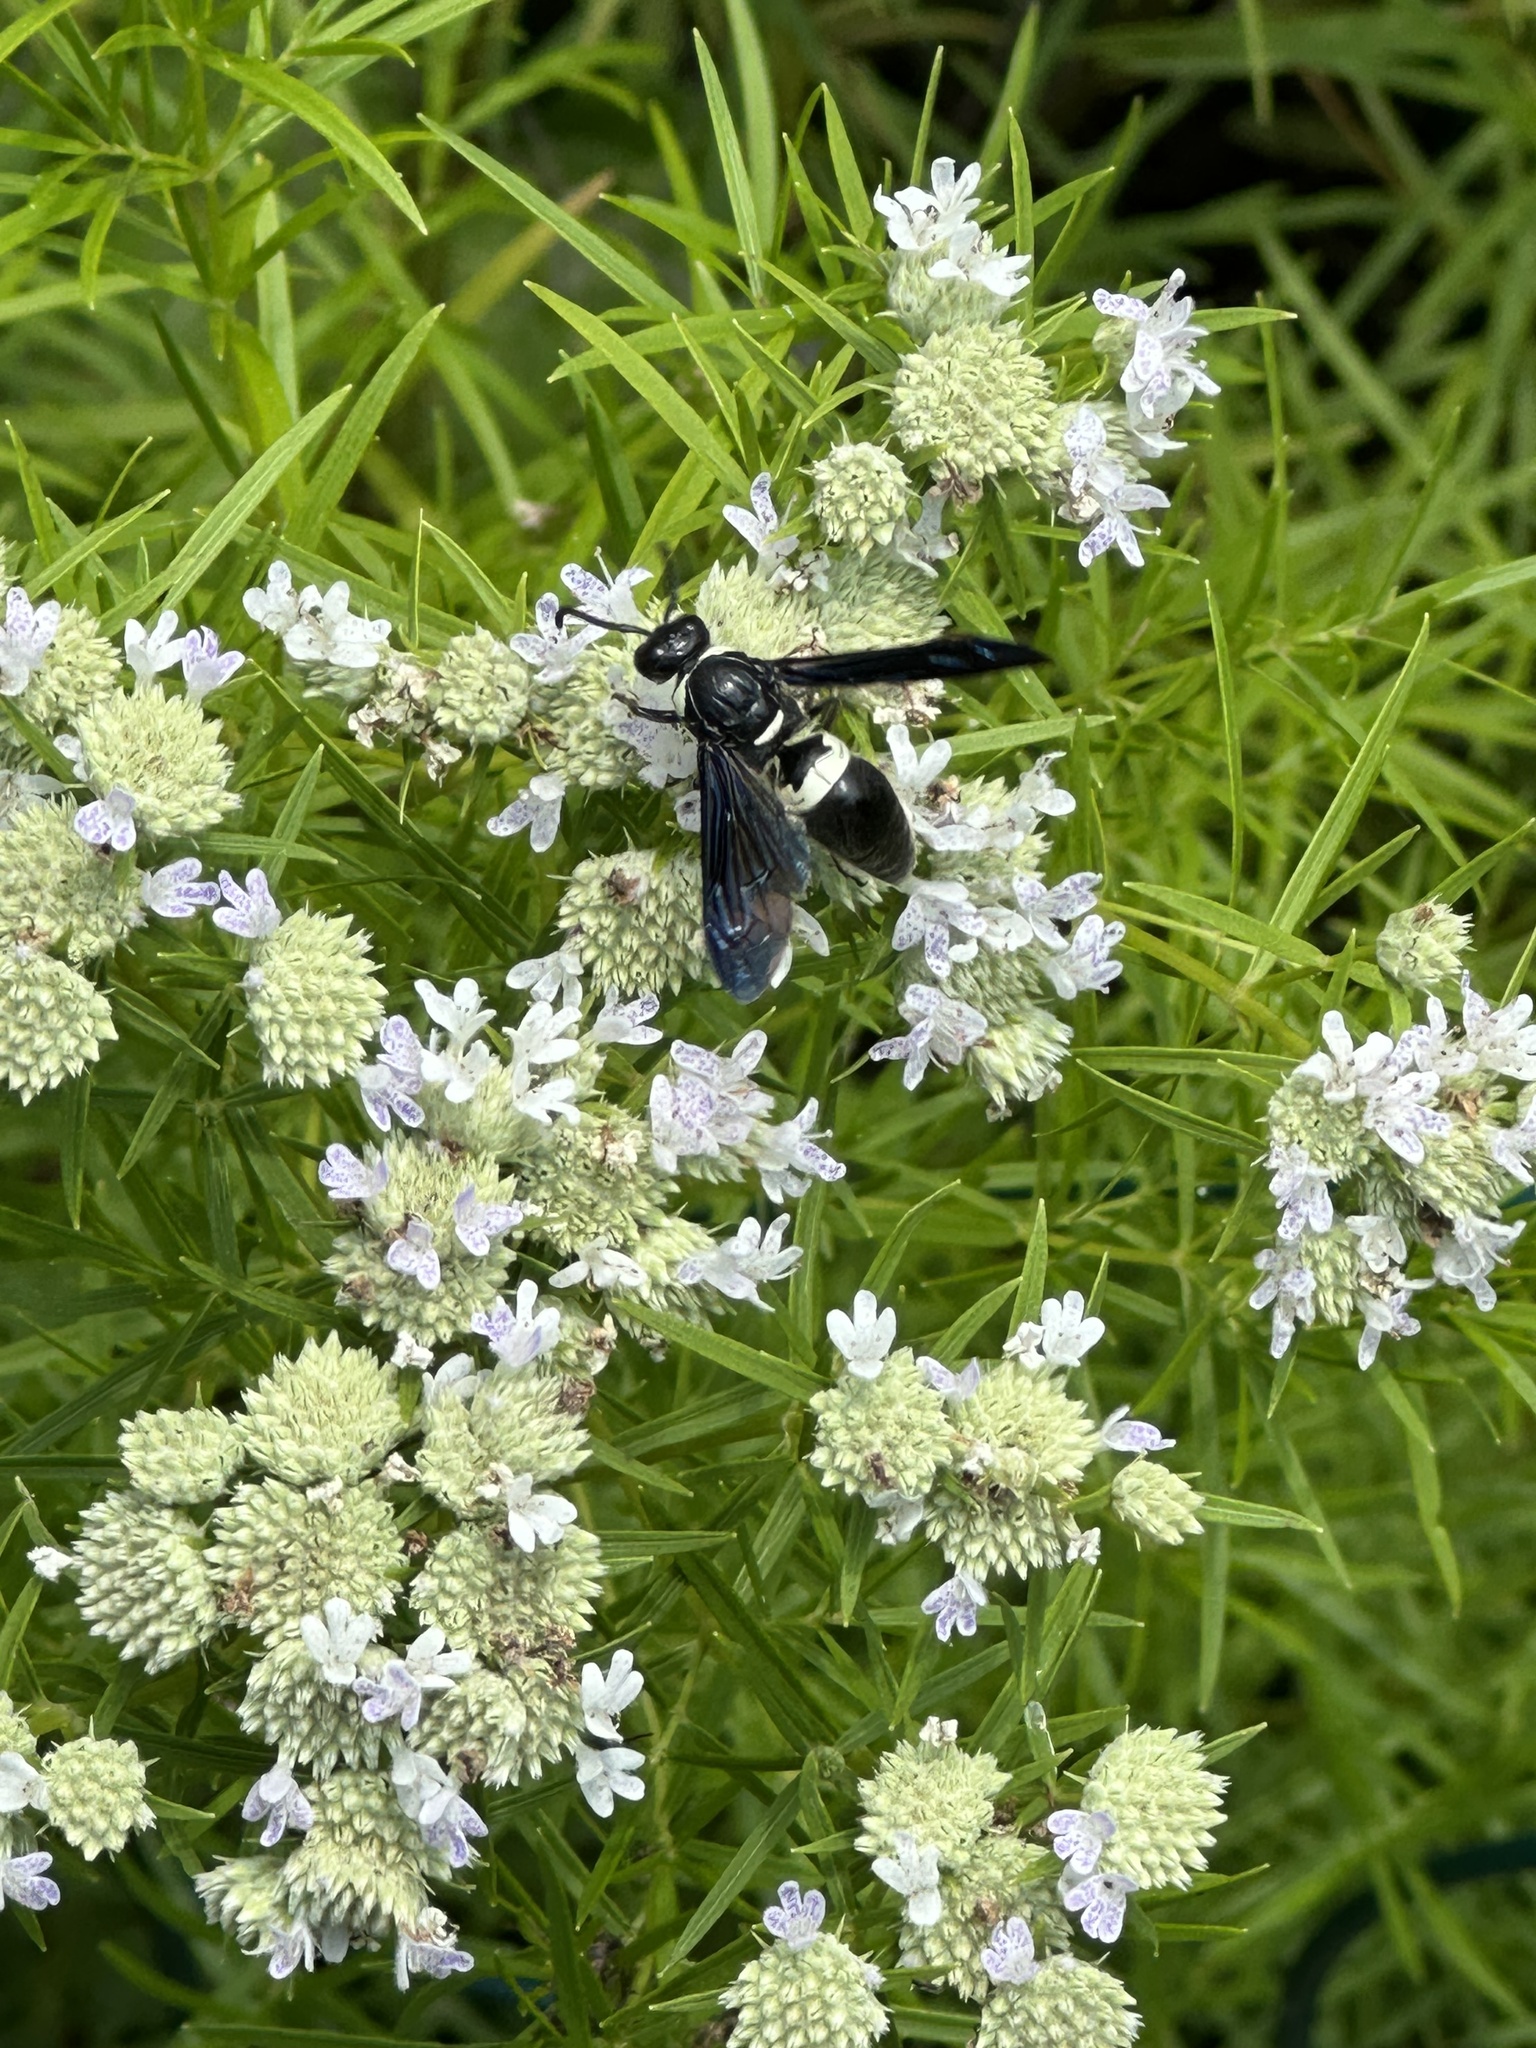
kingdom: Animalia
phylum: Arthropoda
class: Insecta
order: Hymenoptera
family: Eumenidae
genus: Monobia
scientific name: Monobia quadridens
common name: Four-toothed mason wasp
